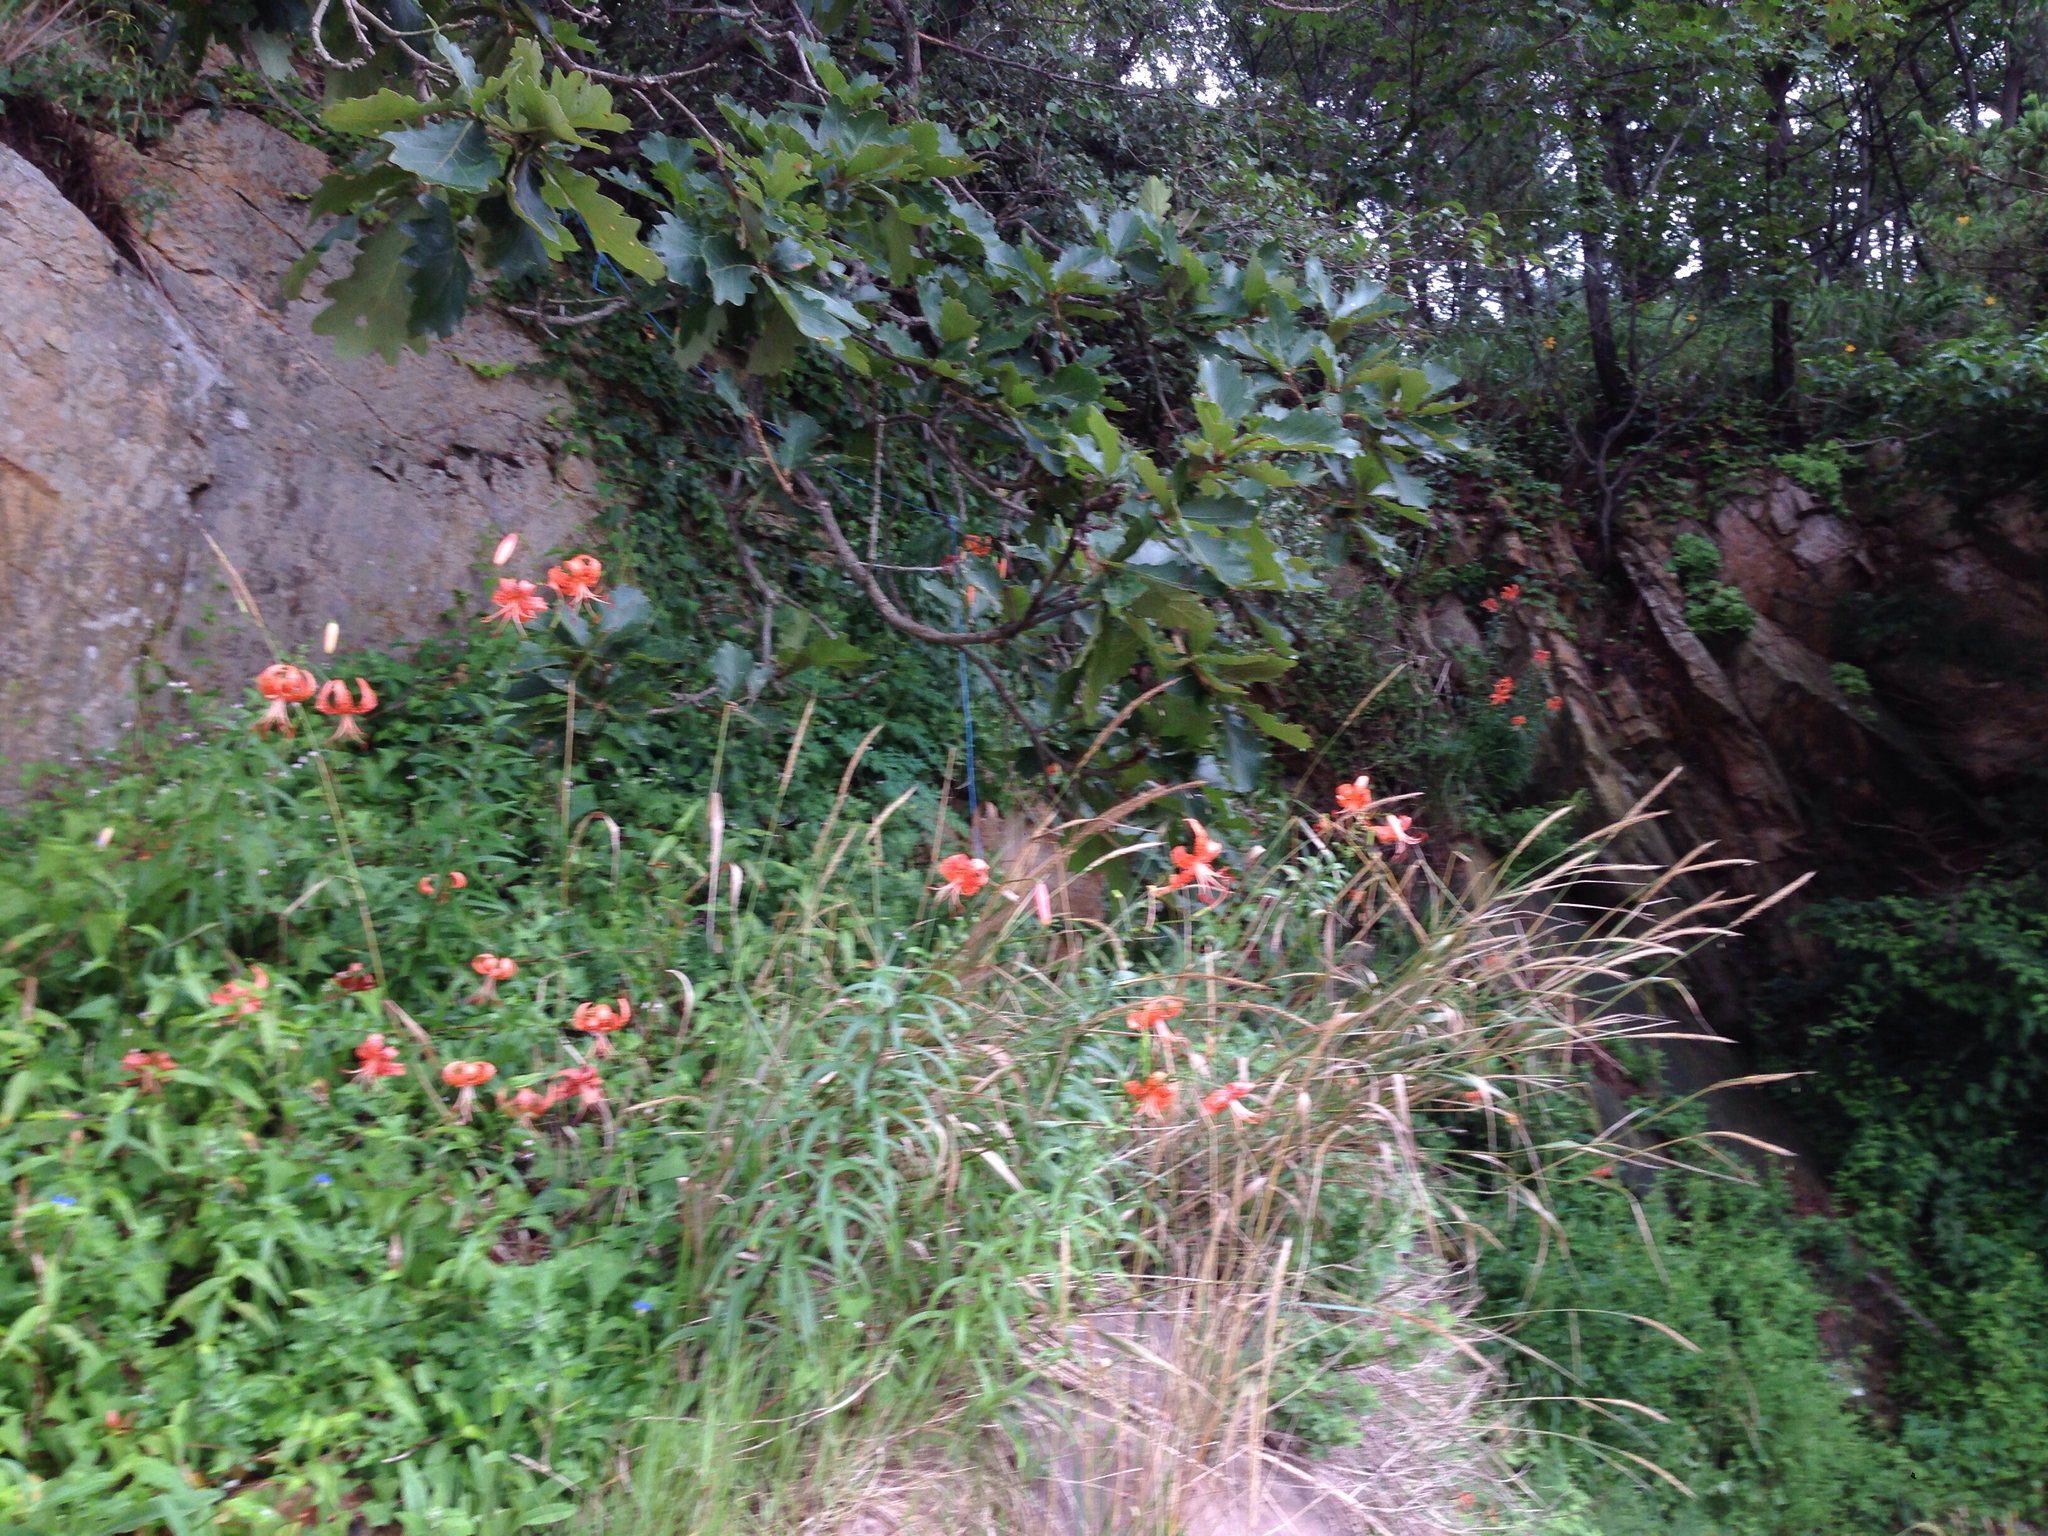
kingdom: Plantae
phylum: Tracheophyta
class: Liliopsida
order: Liliales
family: Liliaceae
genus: Lilium
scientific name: Lilium lancifolium
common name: Tiger lily
